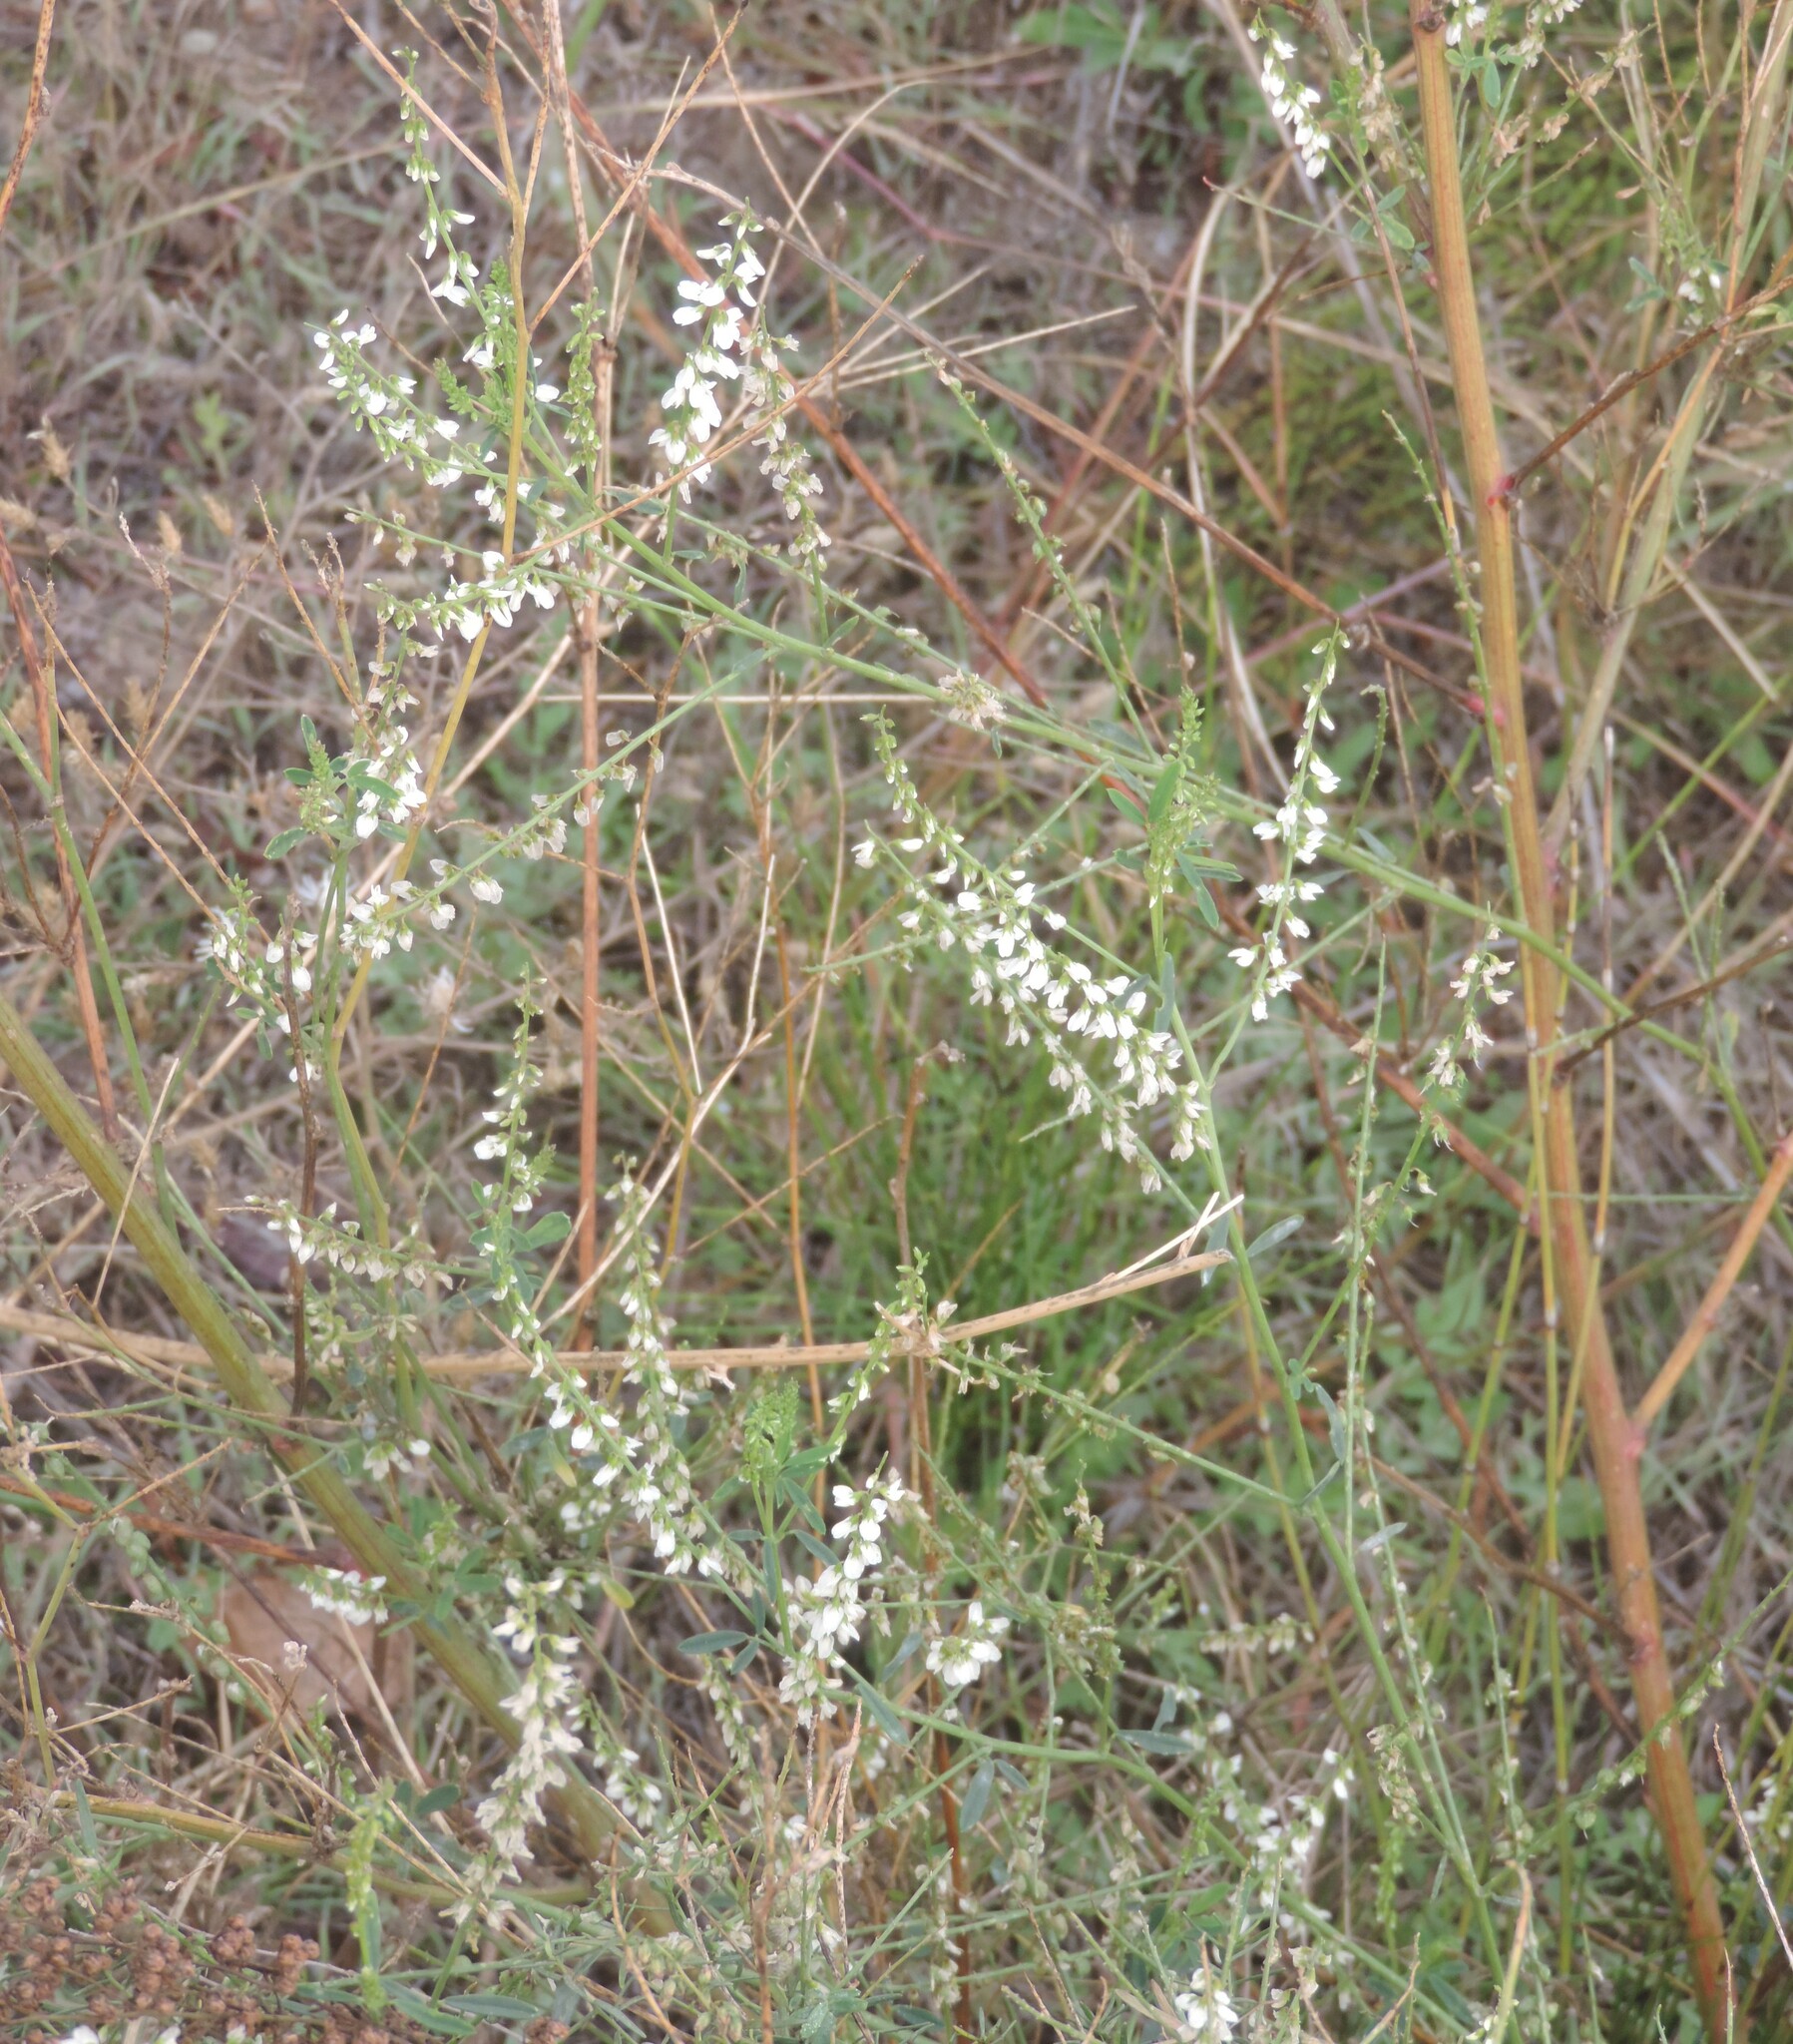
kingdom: Plantae
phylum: Tracheophyta
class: Magnoliopsida
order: Fabales
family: Fabaceae
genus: Melilotus
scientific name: Melilotus albus
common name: White melilot
